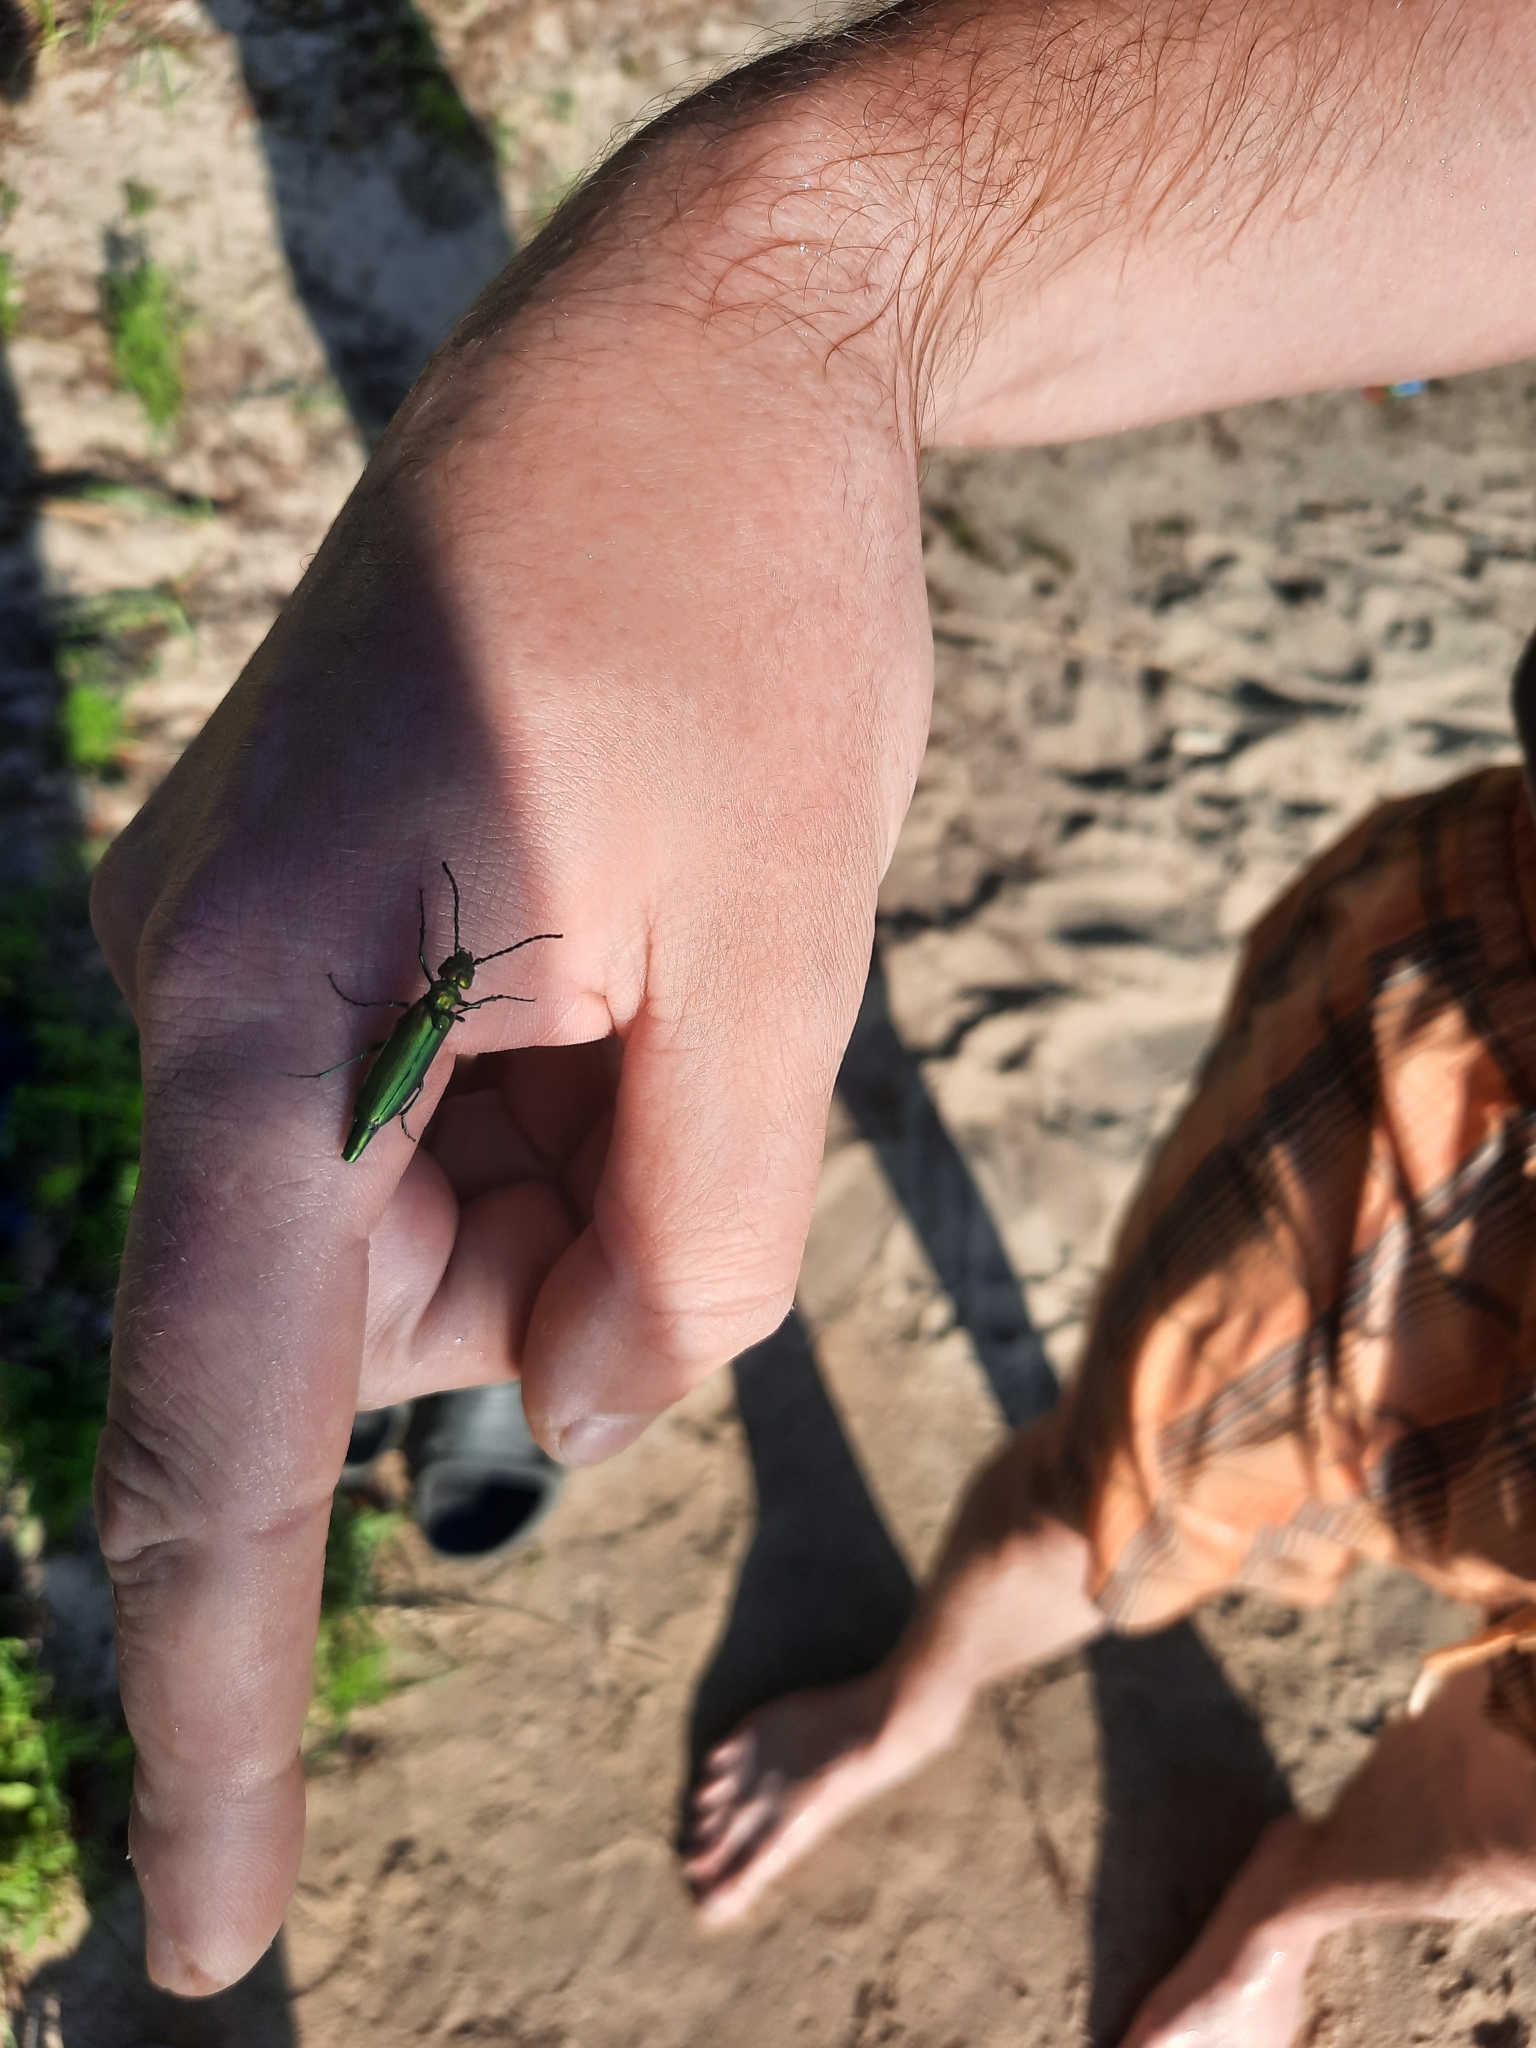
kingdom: Animalia
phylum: Arthropoda
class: Insecta
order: Coleoptera
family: Meloidae
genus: Lytta
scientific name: Lytta vesicatoria
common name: Spanish fly
